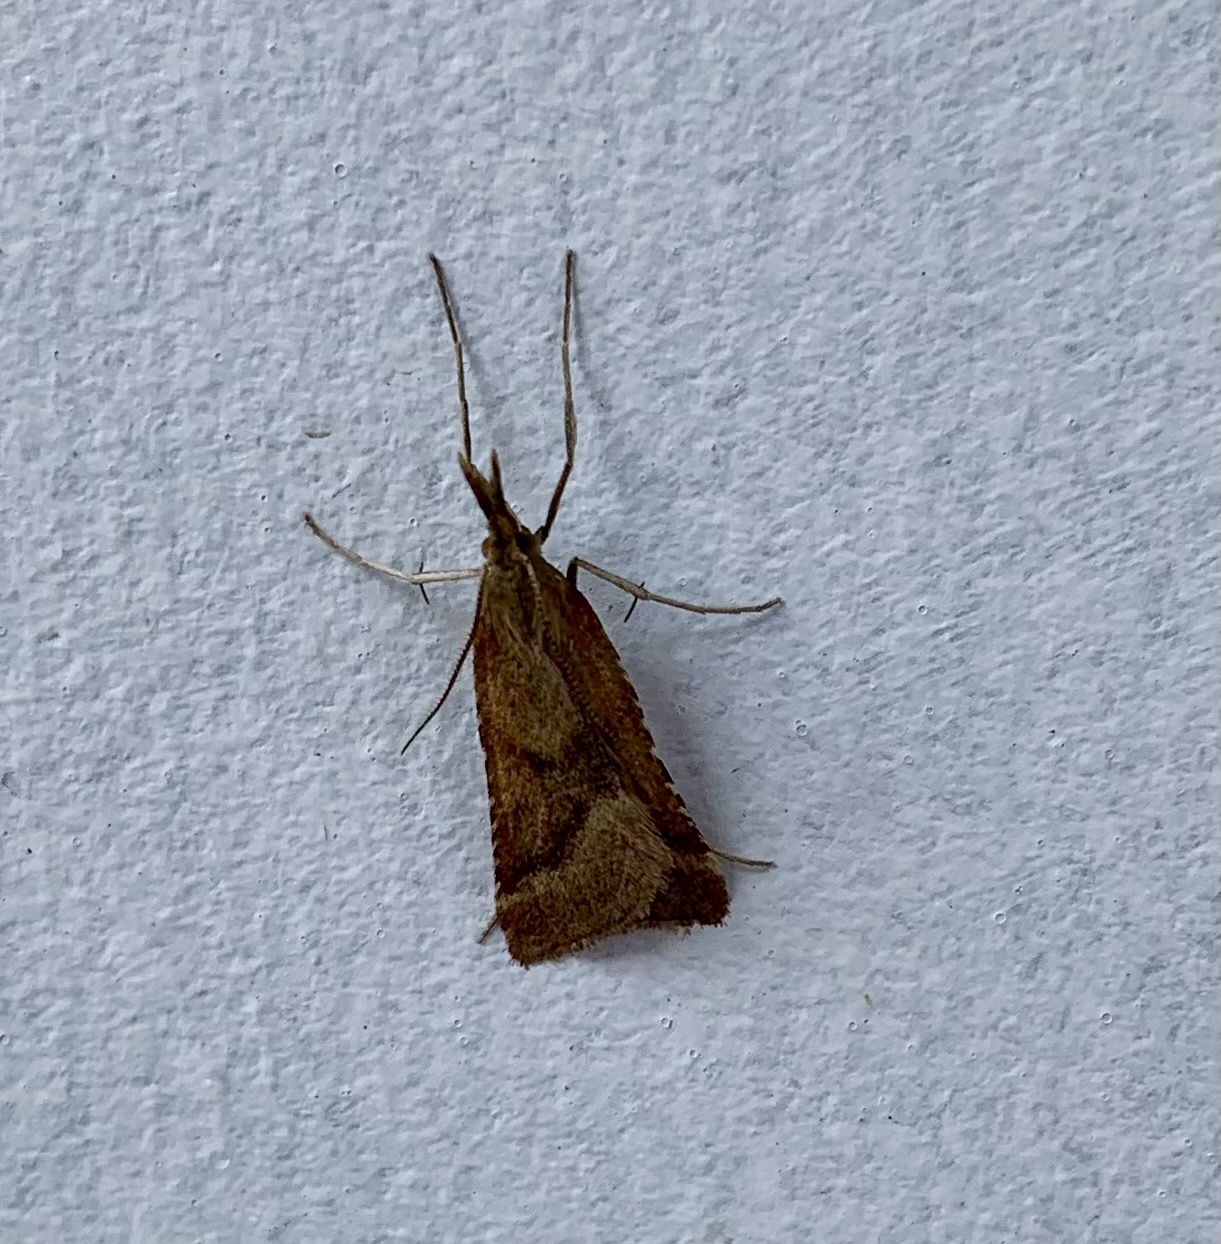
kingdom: Animalia
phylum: Arthropoda
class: Insecta
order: Lepidoptera
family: Pyralidae
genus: Synaphe
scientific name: Synaphe punctalis
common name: Long-legged tabby
